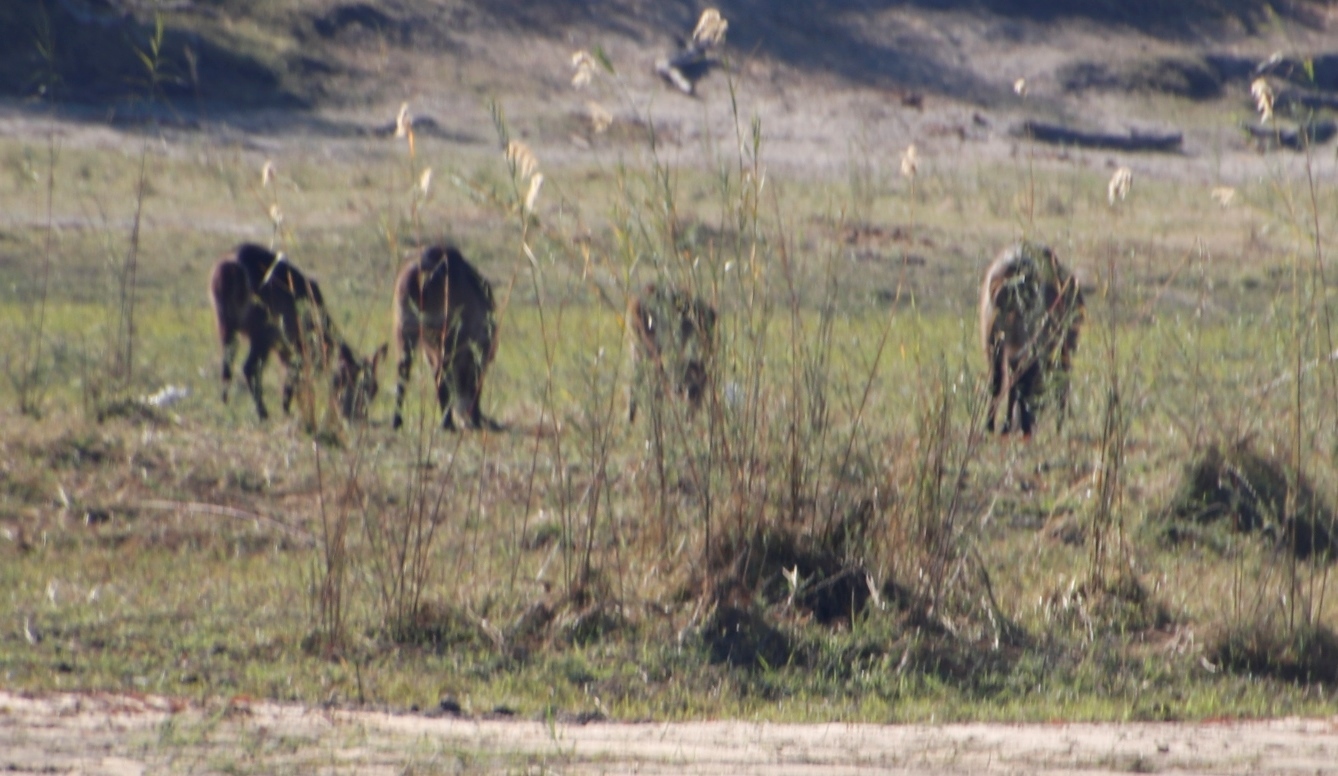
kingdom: Animalia
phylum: Chordata
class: Mammalia
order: Artiodactyla
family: Bovidae
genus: Kobus
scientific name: Kobus ellipsiprymnus
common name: Waterbuck
